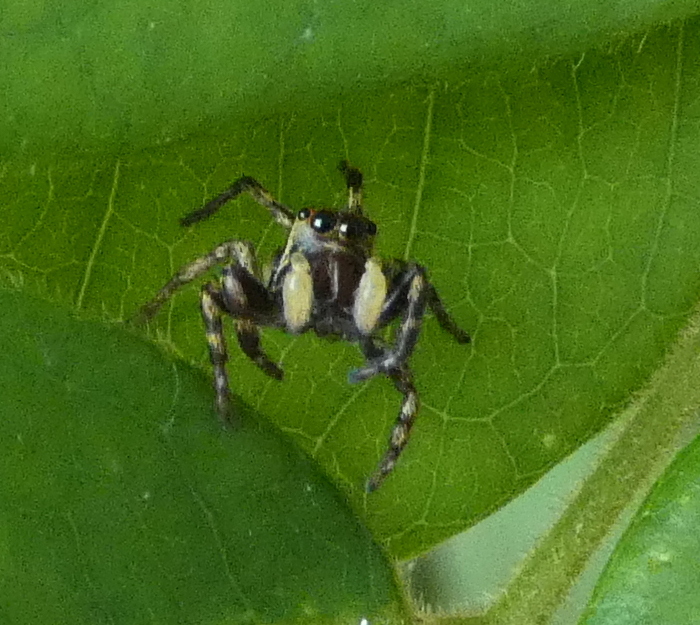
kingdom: Animalia
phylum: Arthropoda
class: Arachnida
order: Araneae
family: Salticidae
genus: Phiale
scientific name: Phiale
